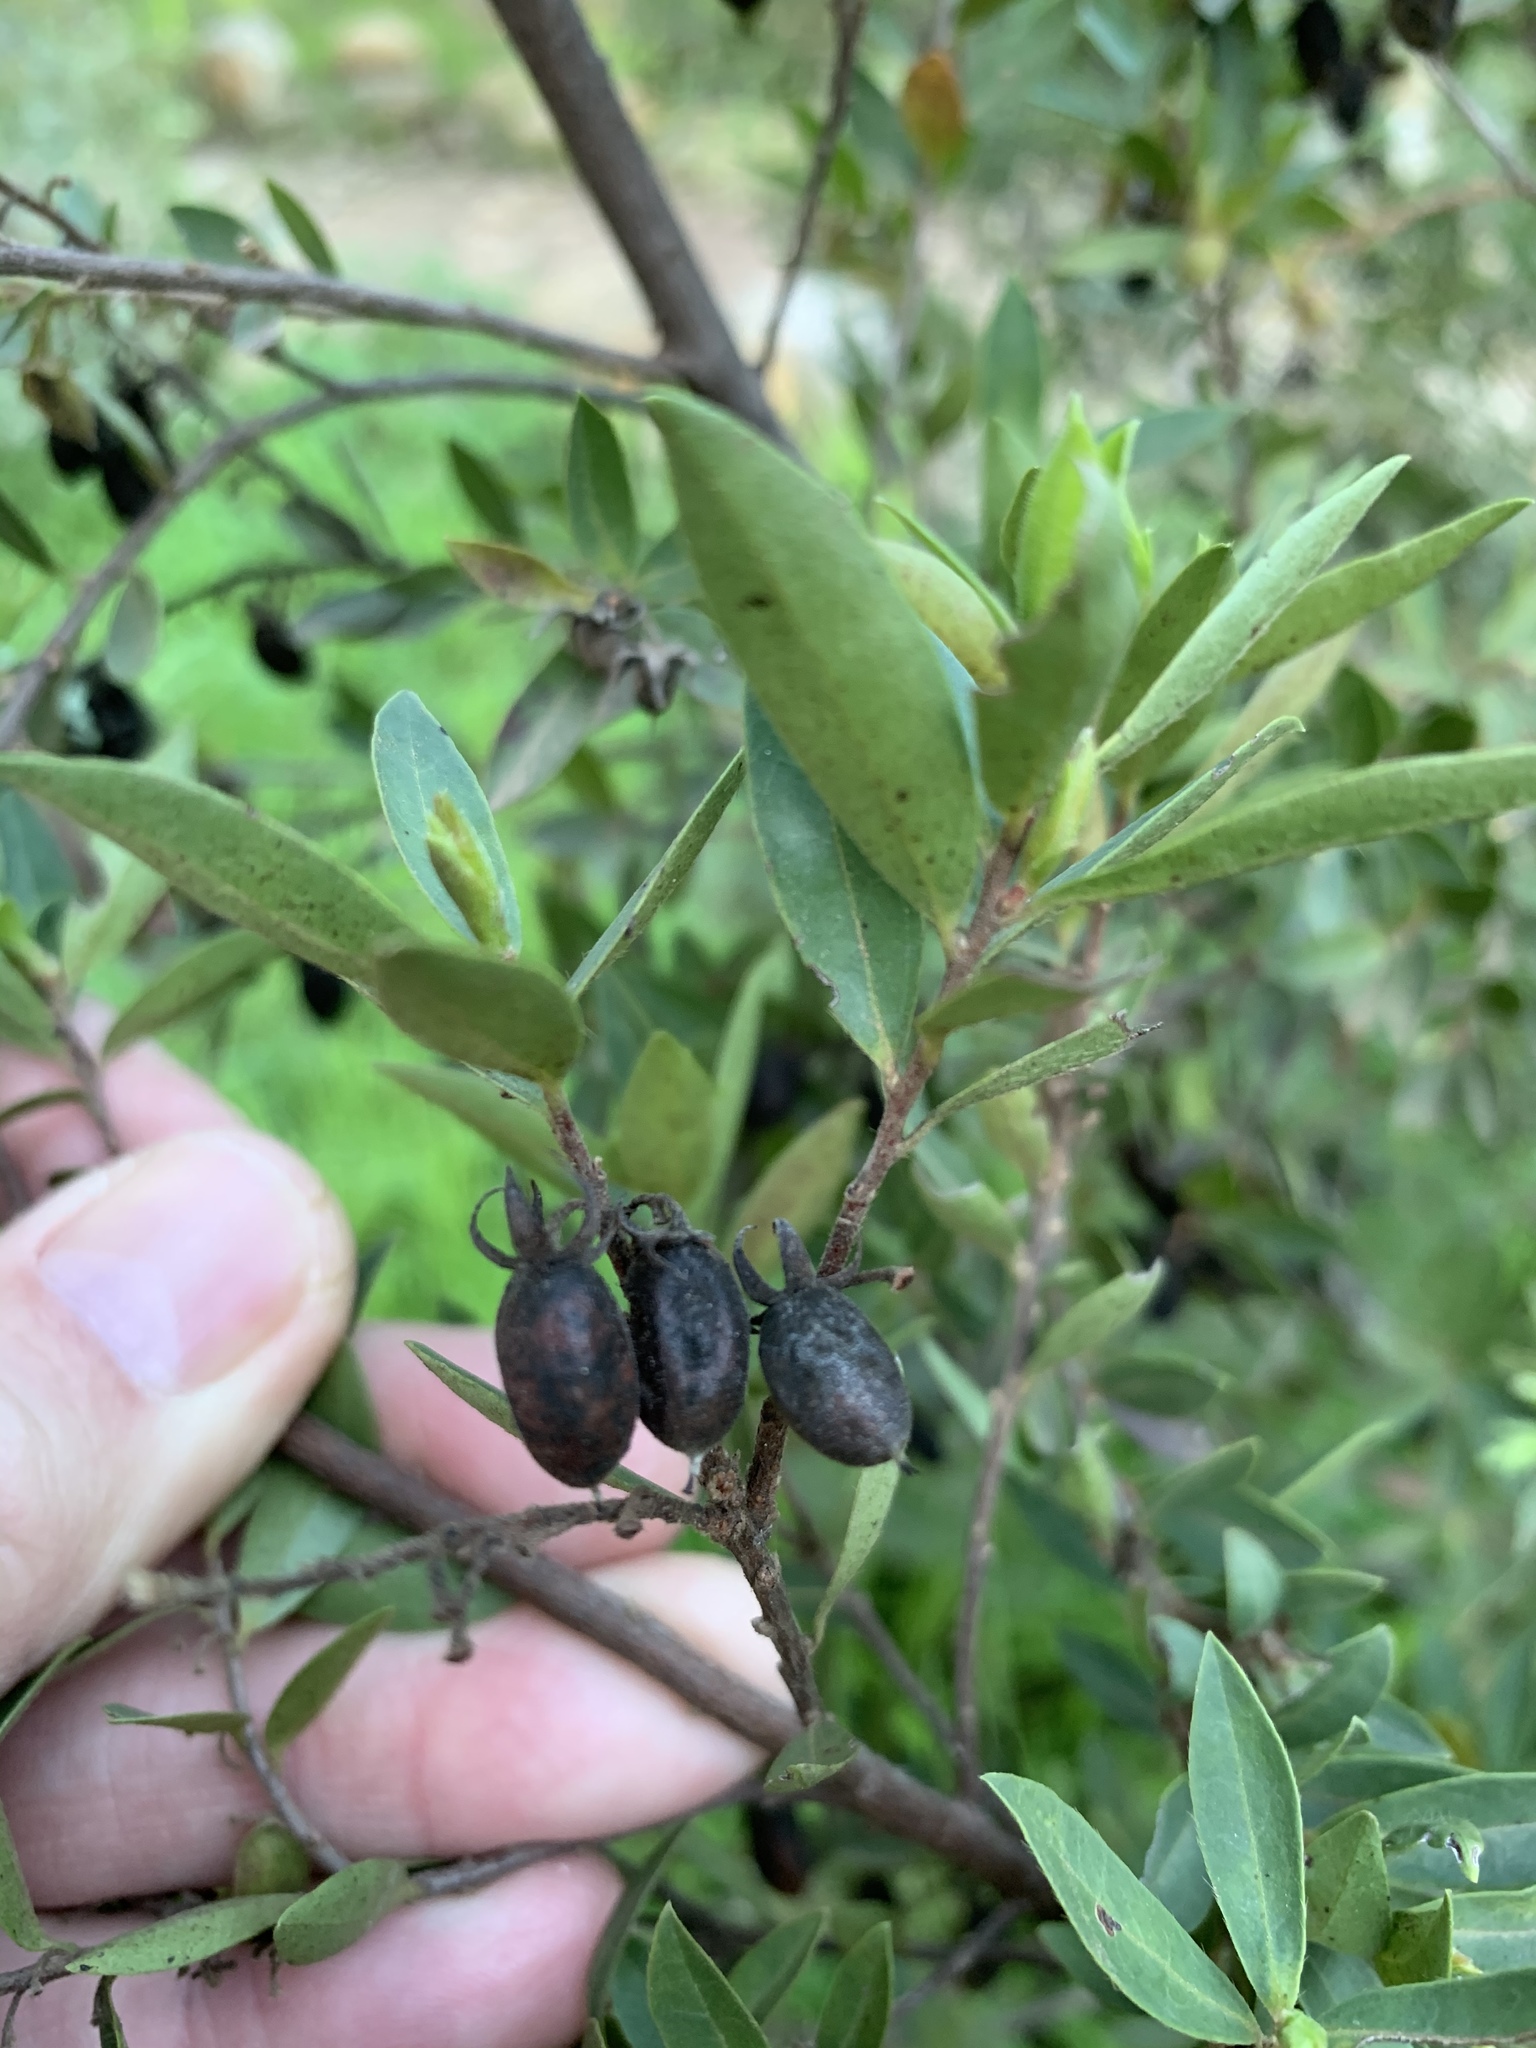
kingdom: Plantae
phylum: Tracheophyta
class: Magnoliopsida
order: Ericales
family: Ebenaceae
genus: Diospyros
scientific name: Diospyros glabra
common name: Fynbos star apple
